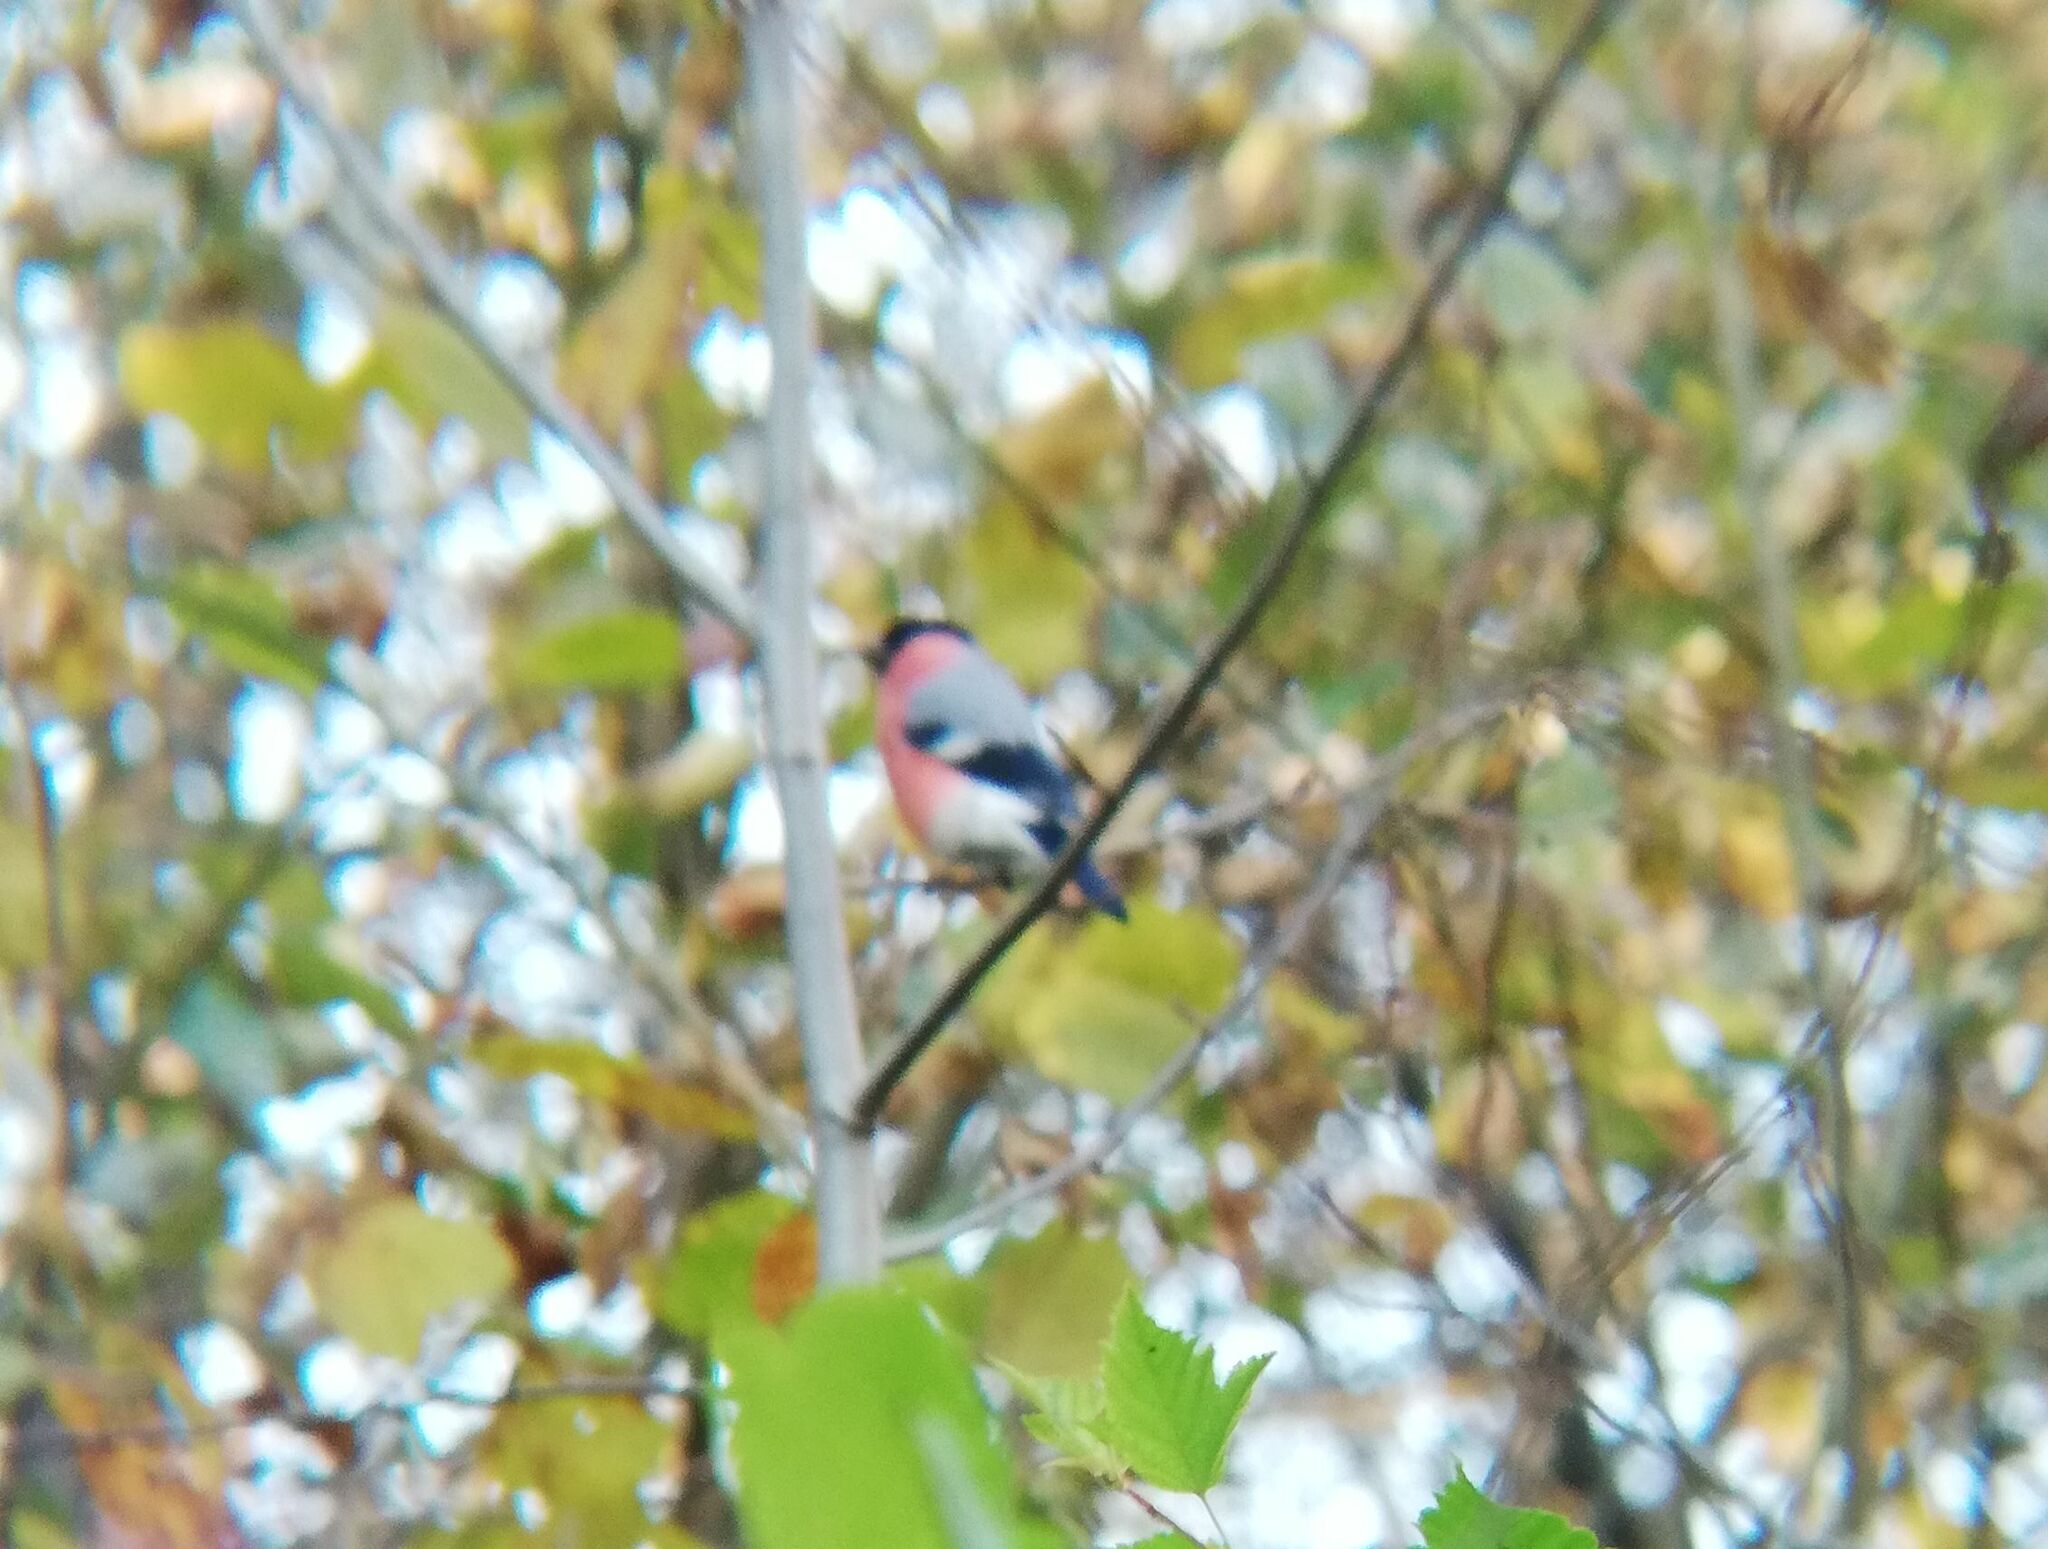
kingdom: Animalia
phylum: Chordata
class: Aves
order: Passeriformes
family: Fringillidae
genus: Pyrrhula
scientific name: Pyrrhula pyrrhula
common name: Eurasian bullfinch
